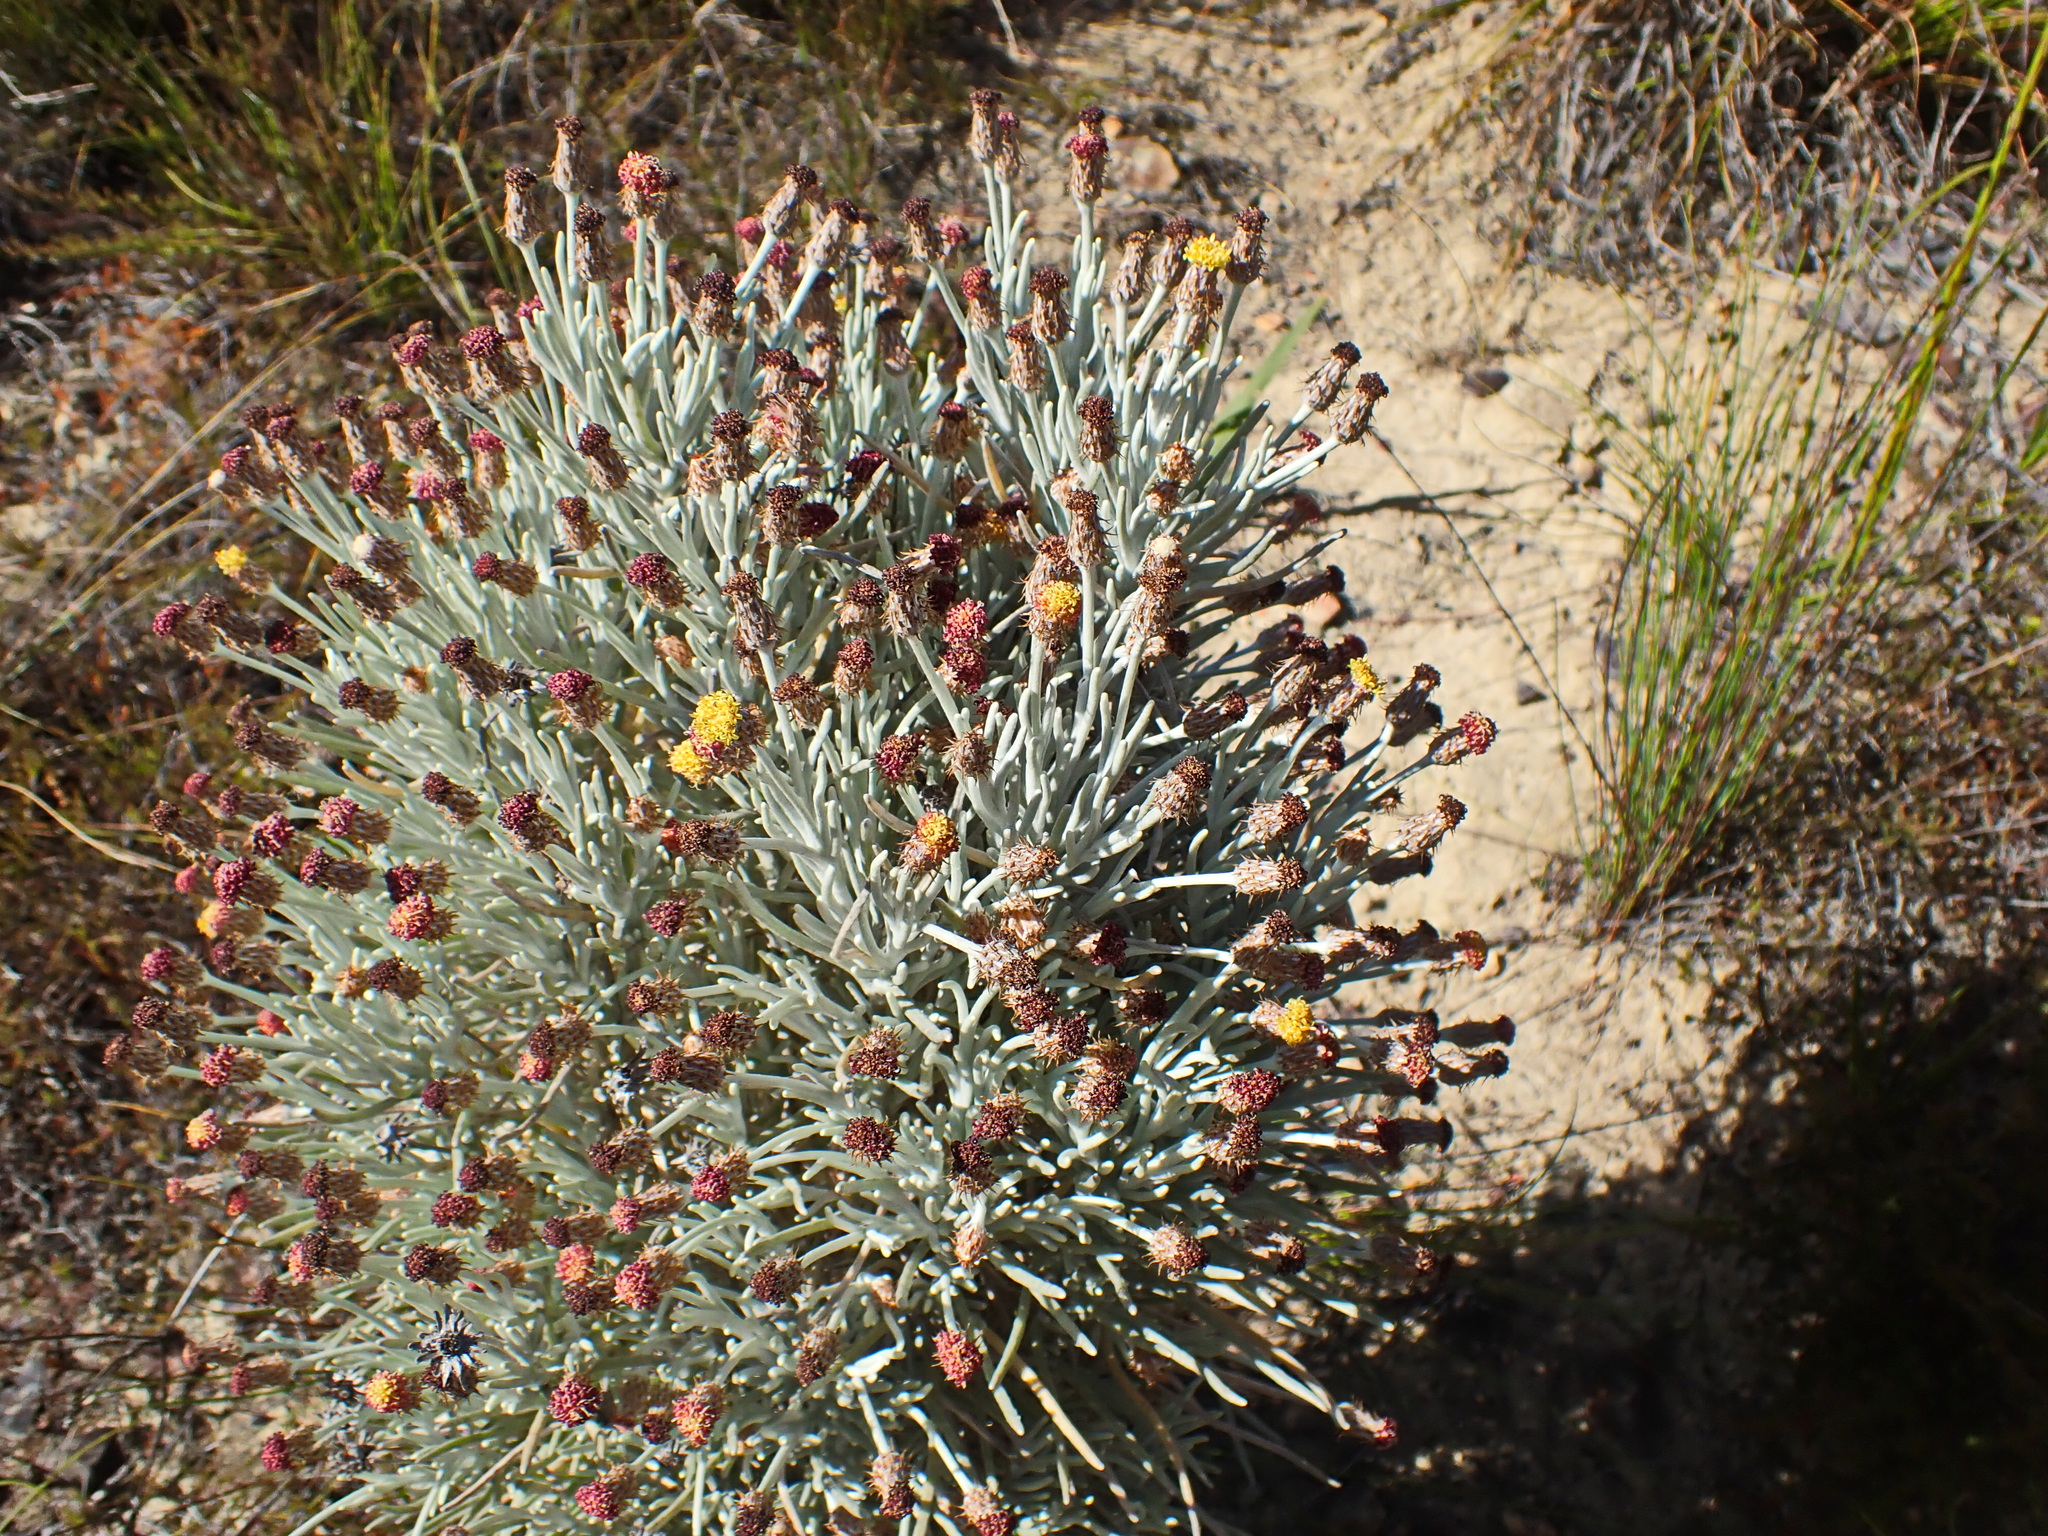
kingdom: Plantae
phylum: Tracheophyta
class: Magnoliopsida
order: Asterales
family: Asteraceae
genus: Syncarpha
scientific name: Syncarpha gnaphaloides
